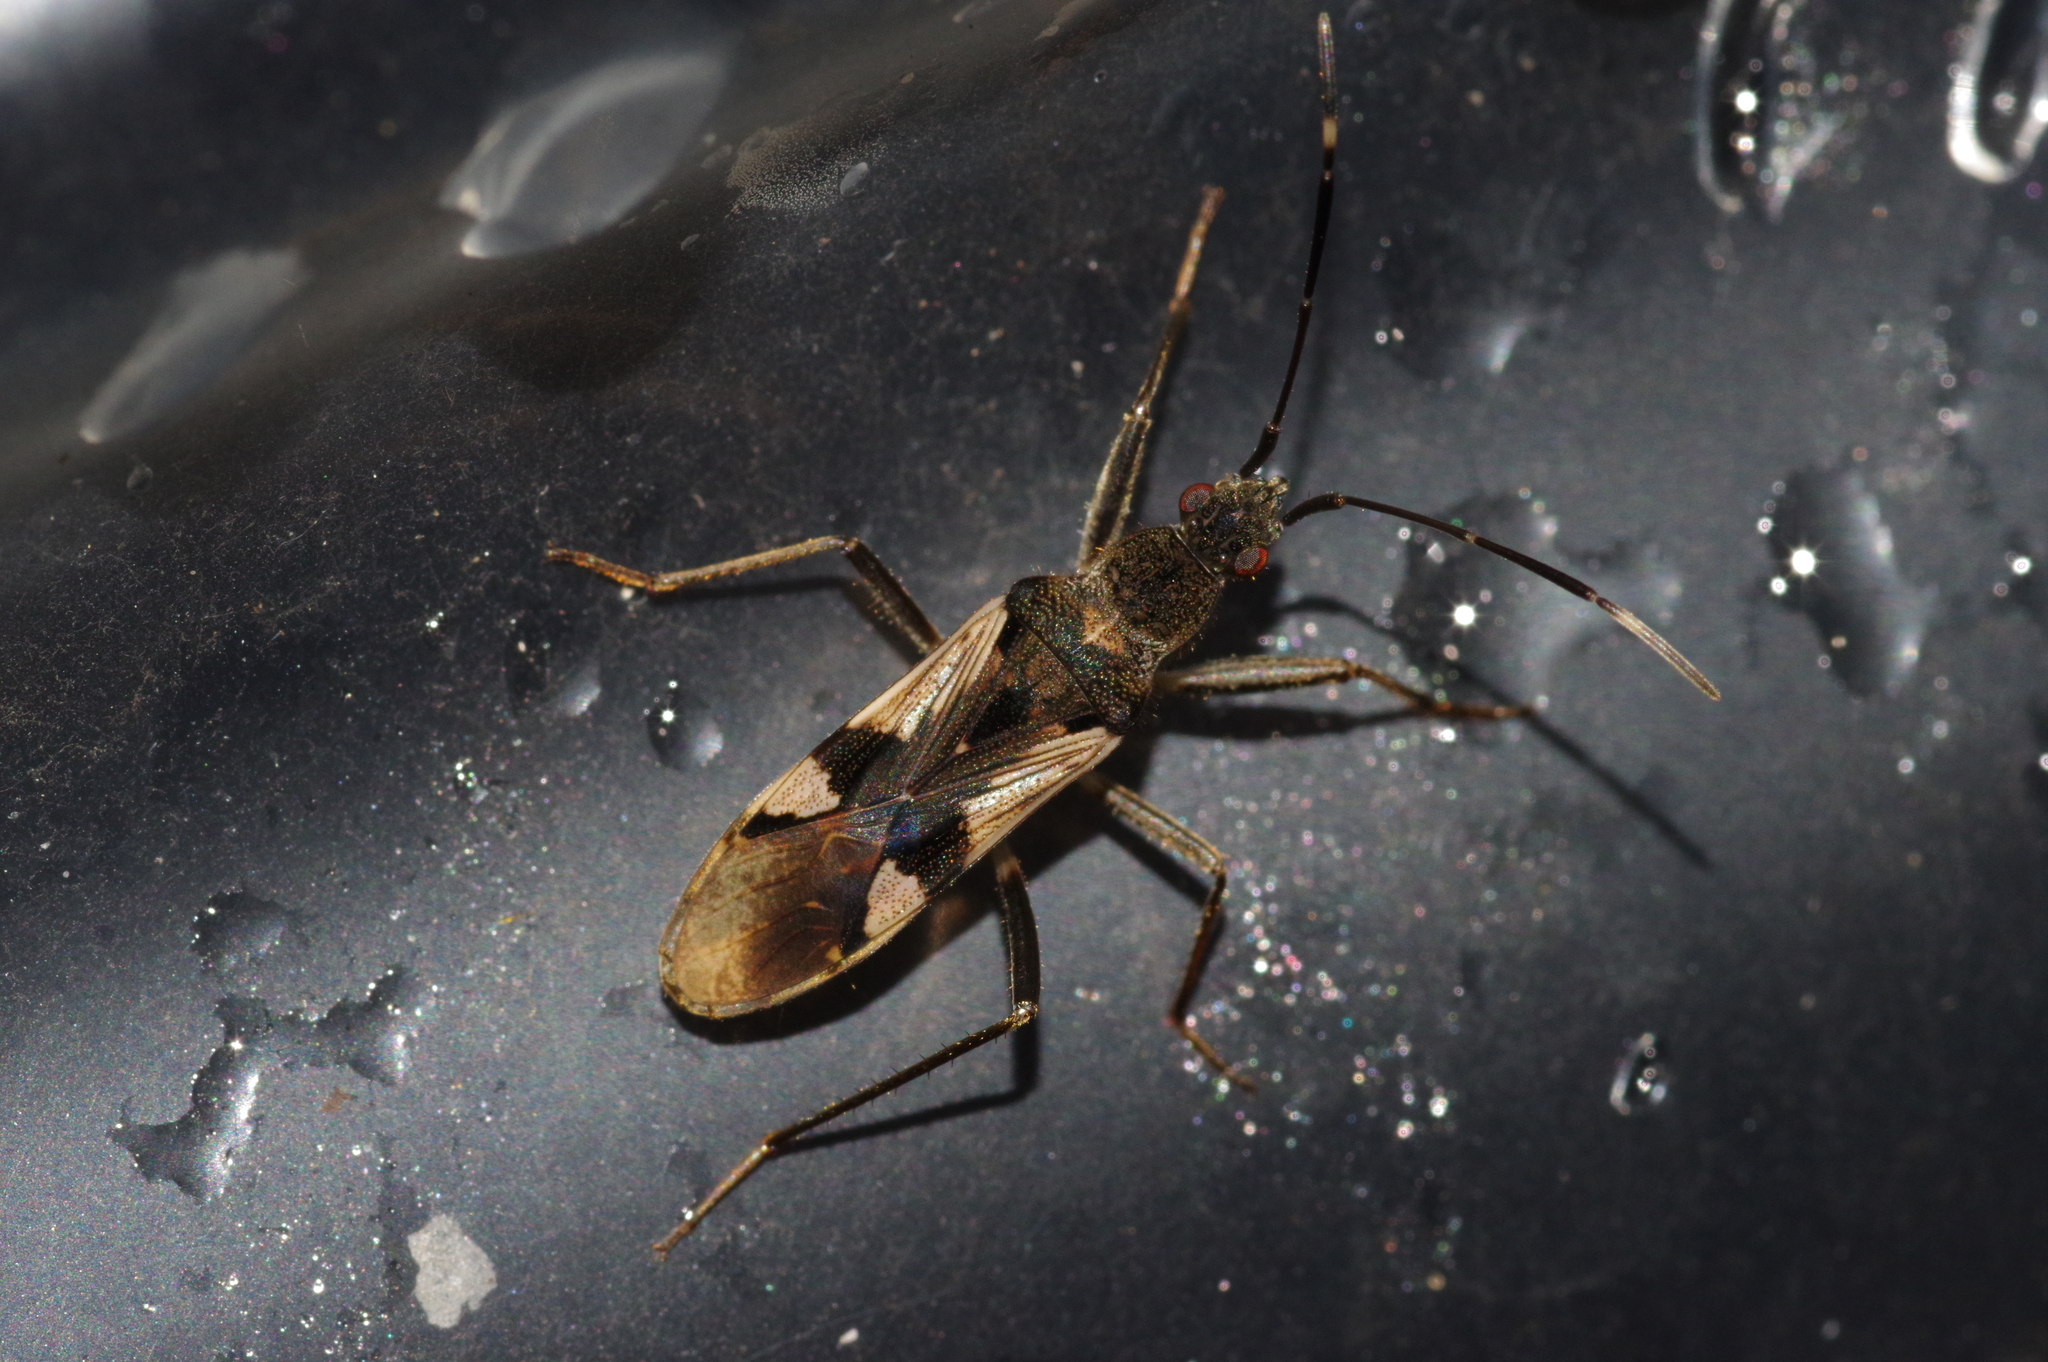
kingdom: Animalia
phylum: Arthropoda
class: Insecta
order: Hemiptera
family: Rhyparochromidae
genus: Metochus
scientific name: Metochus uniguttatus
